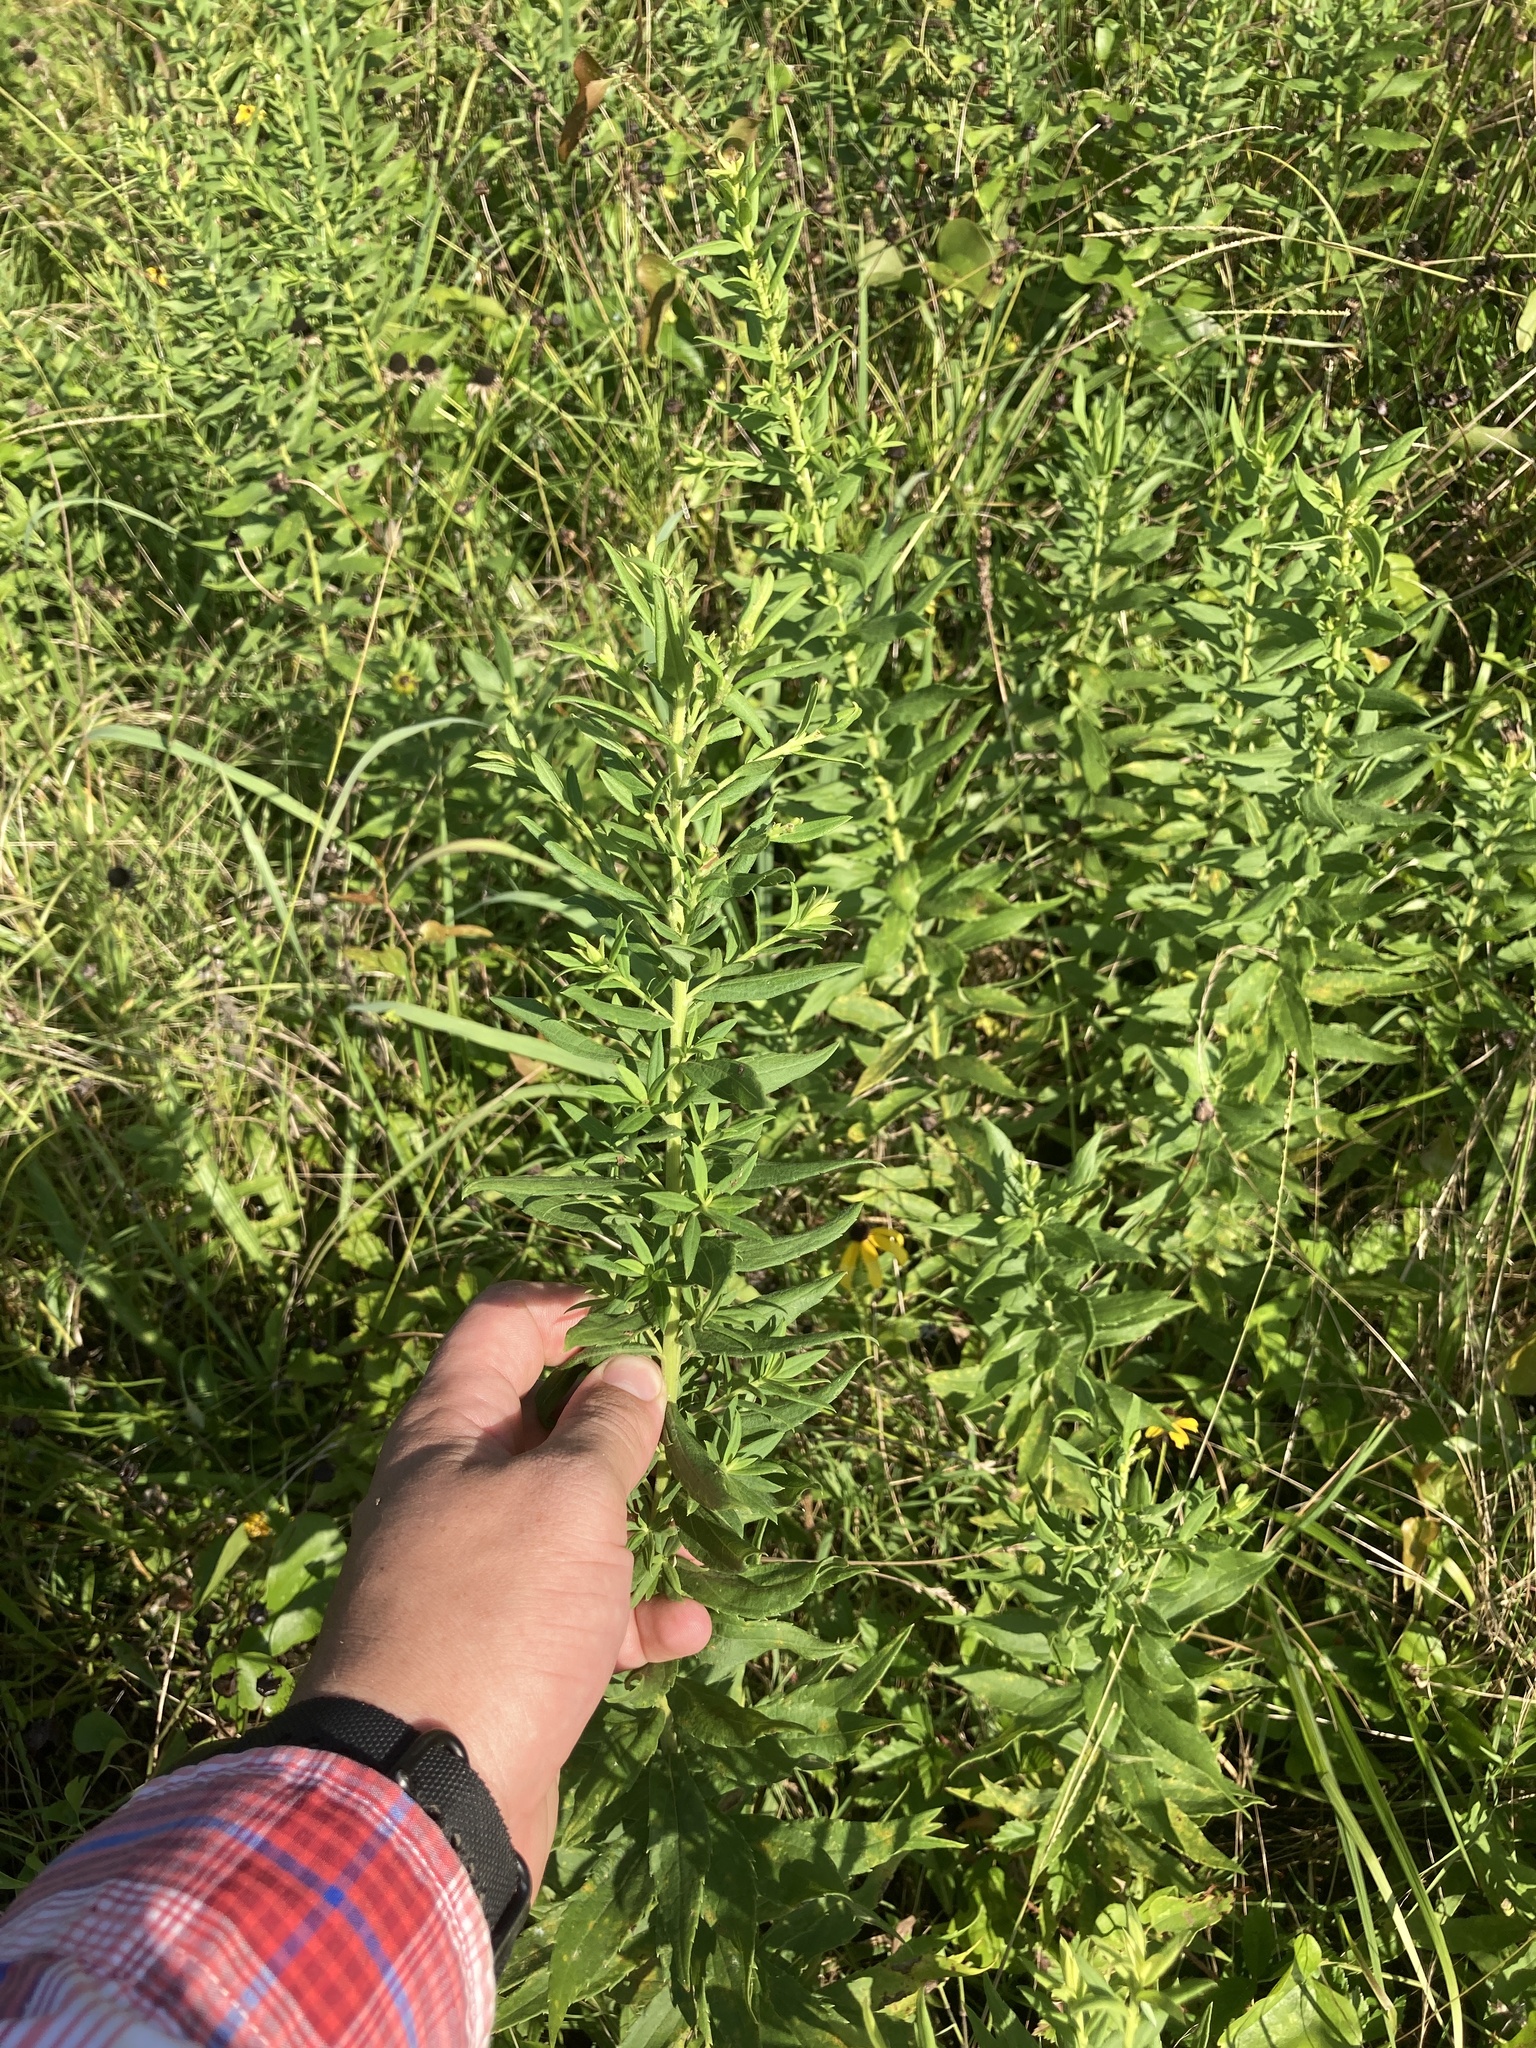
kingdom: Plantae
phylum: Tracheophyta
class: Magnoliopsida
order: Asterales
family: Asteraceae
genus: Solidago
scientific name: Solidago altissima
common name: Late goldenrod
